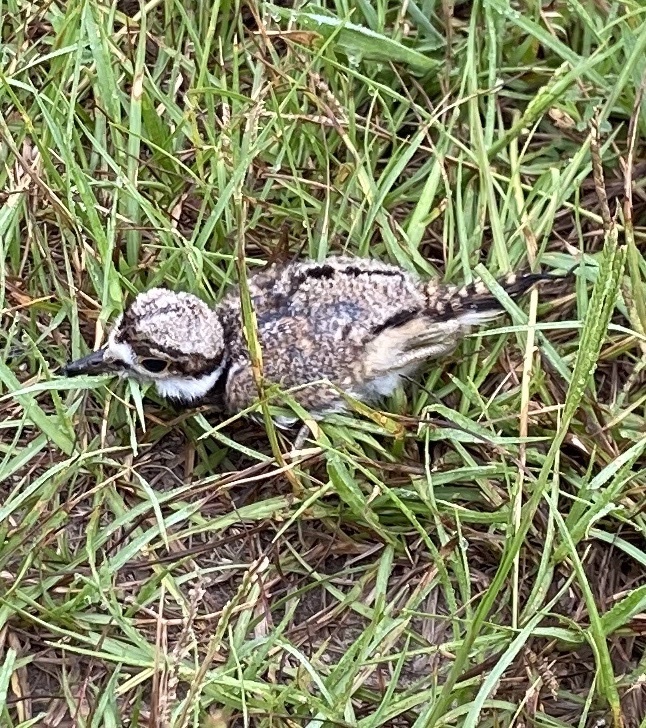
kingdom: Animalia
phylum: Chordata
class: Aves
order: Charadriiformes
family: Charadriidae
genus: Charadrius
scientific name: Charadrius vociferus
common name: Killdeer
